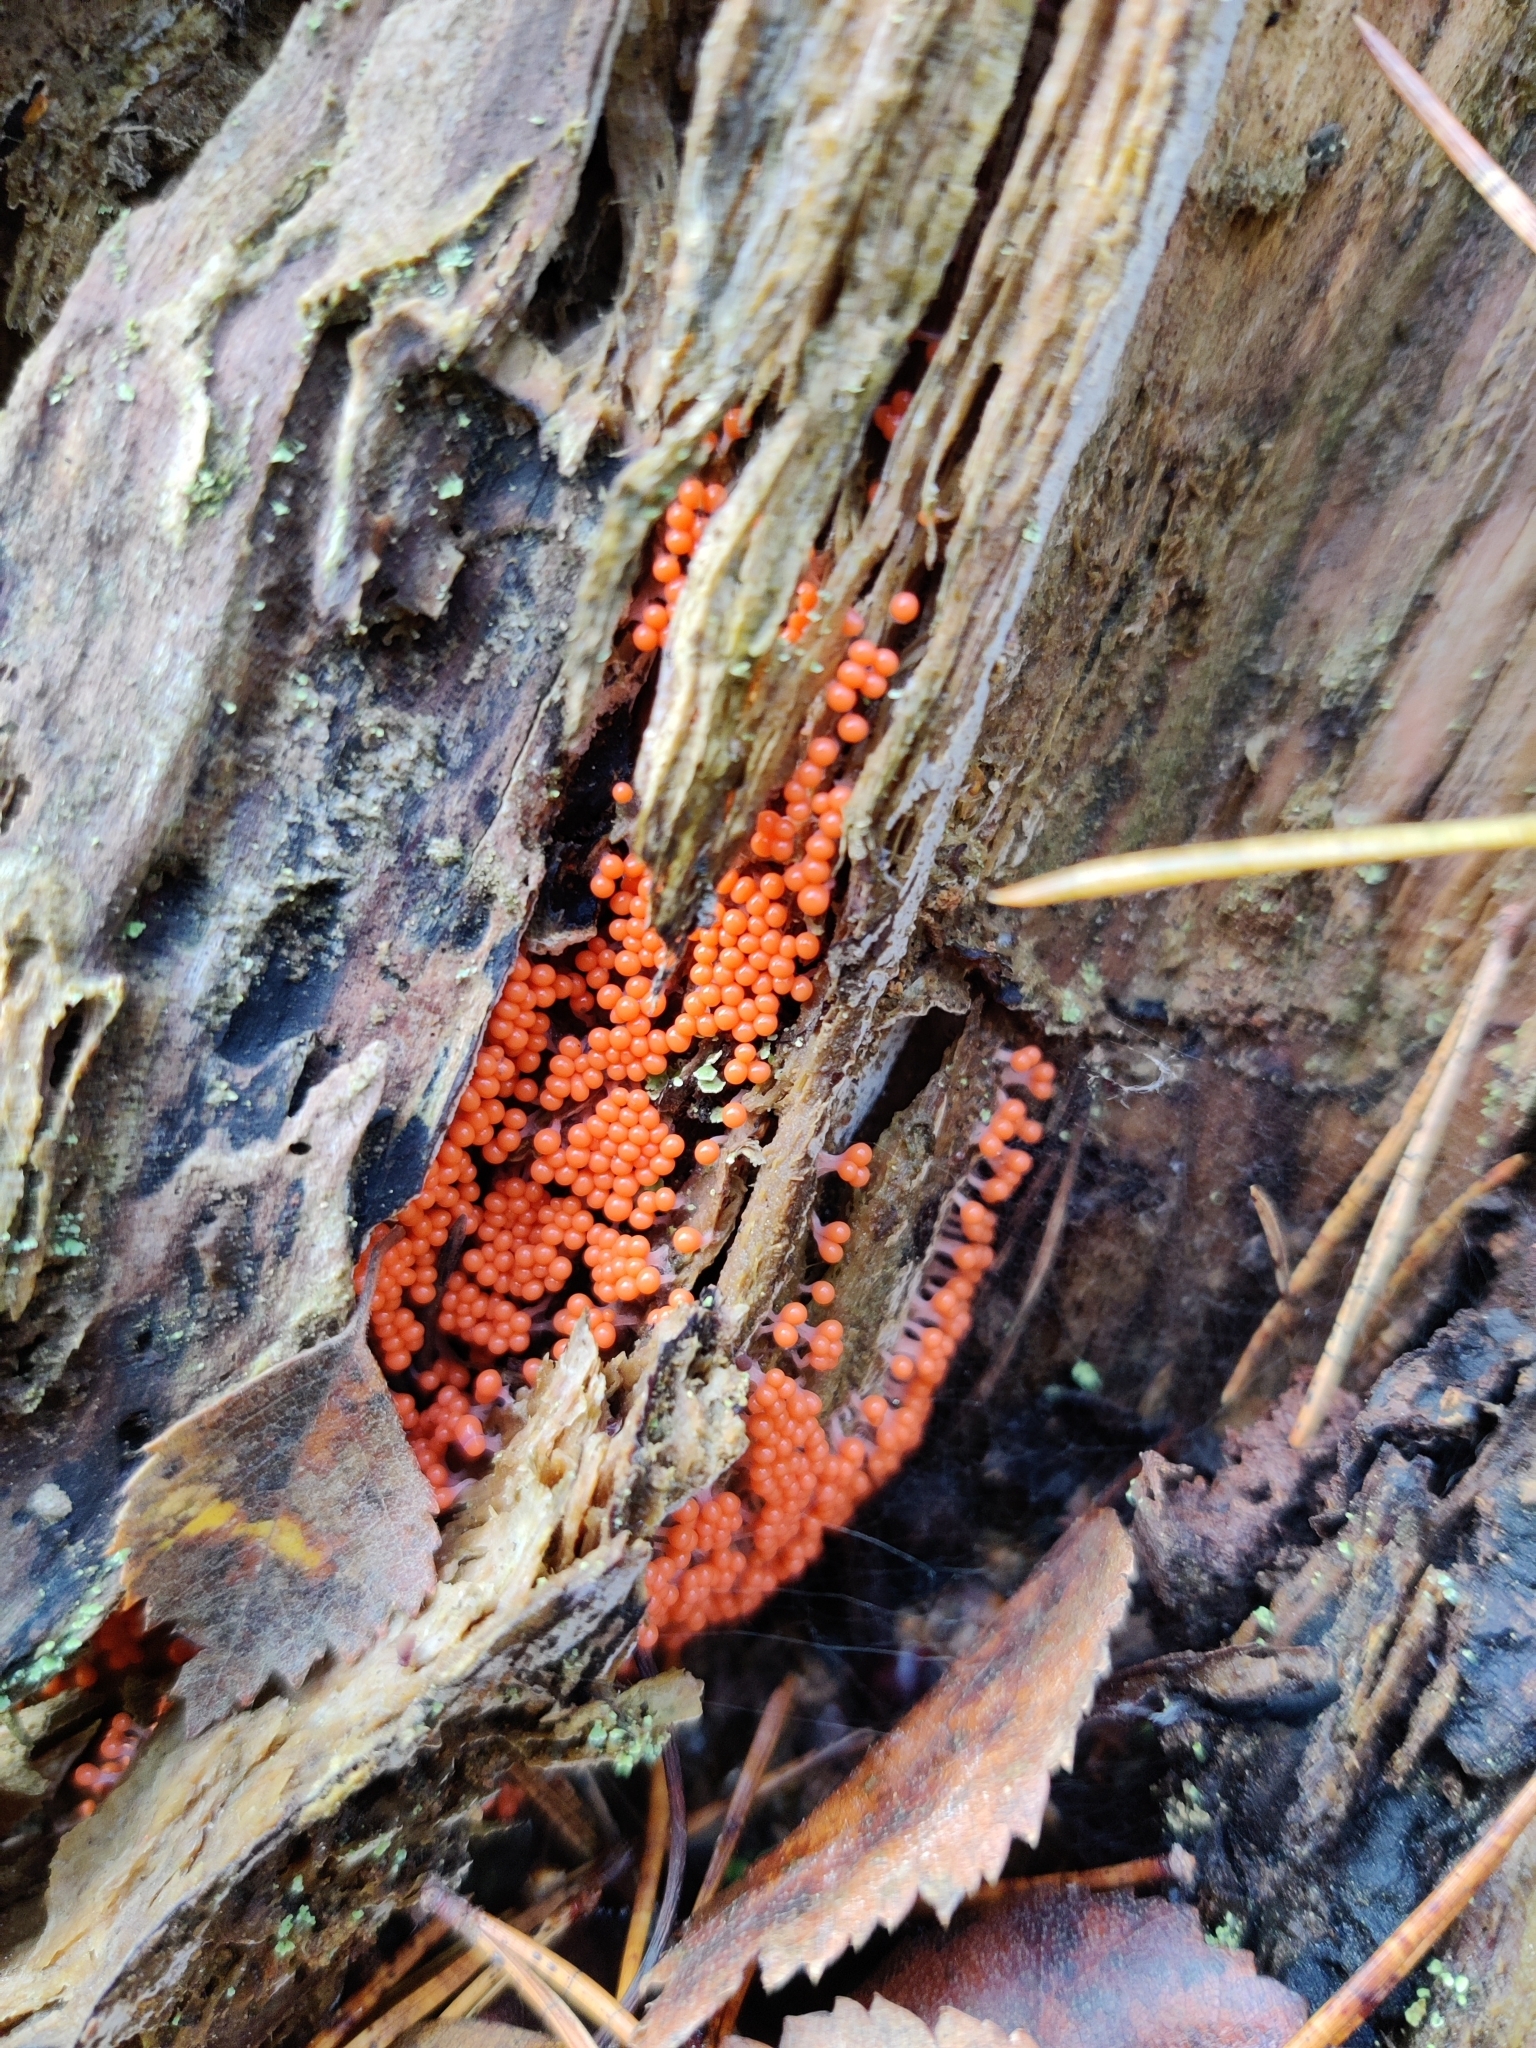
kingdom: Protozoa
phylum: Mycetozoa
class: Myxomycetes
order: Trichiales
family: Arcyriaceae
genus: Hemitrichia
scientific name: Hemitrichia decipiens
